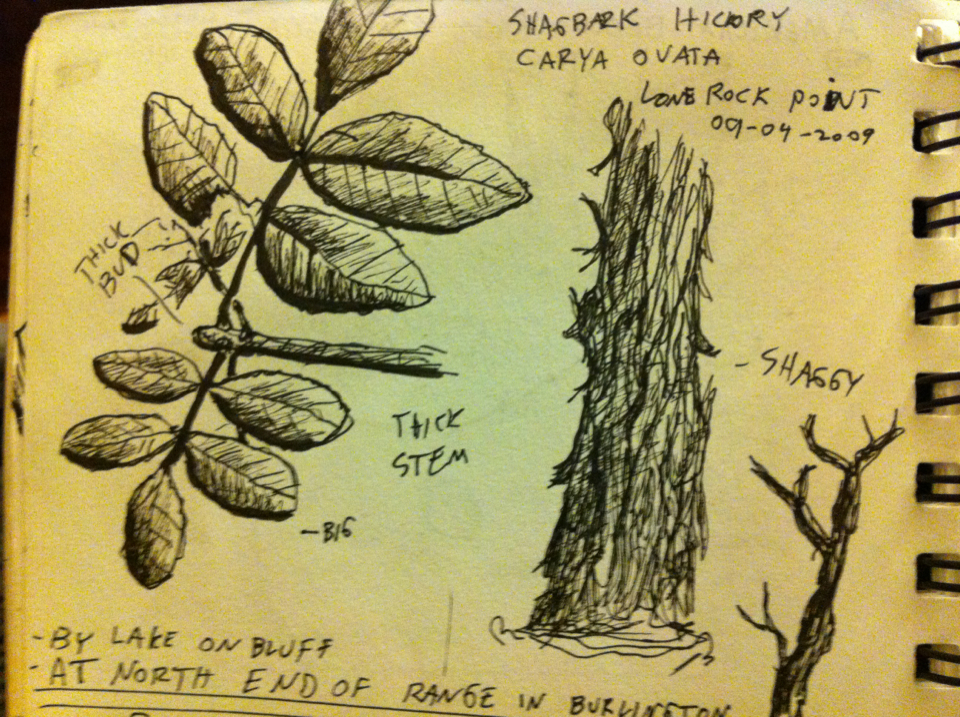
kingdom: Plantae
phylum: Tracheophyta
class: Magnoliopsida
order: Fagales
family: Juglandaceae
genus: Carya
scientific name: Carya ovata
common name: Shagbark hickory
